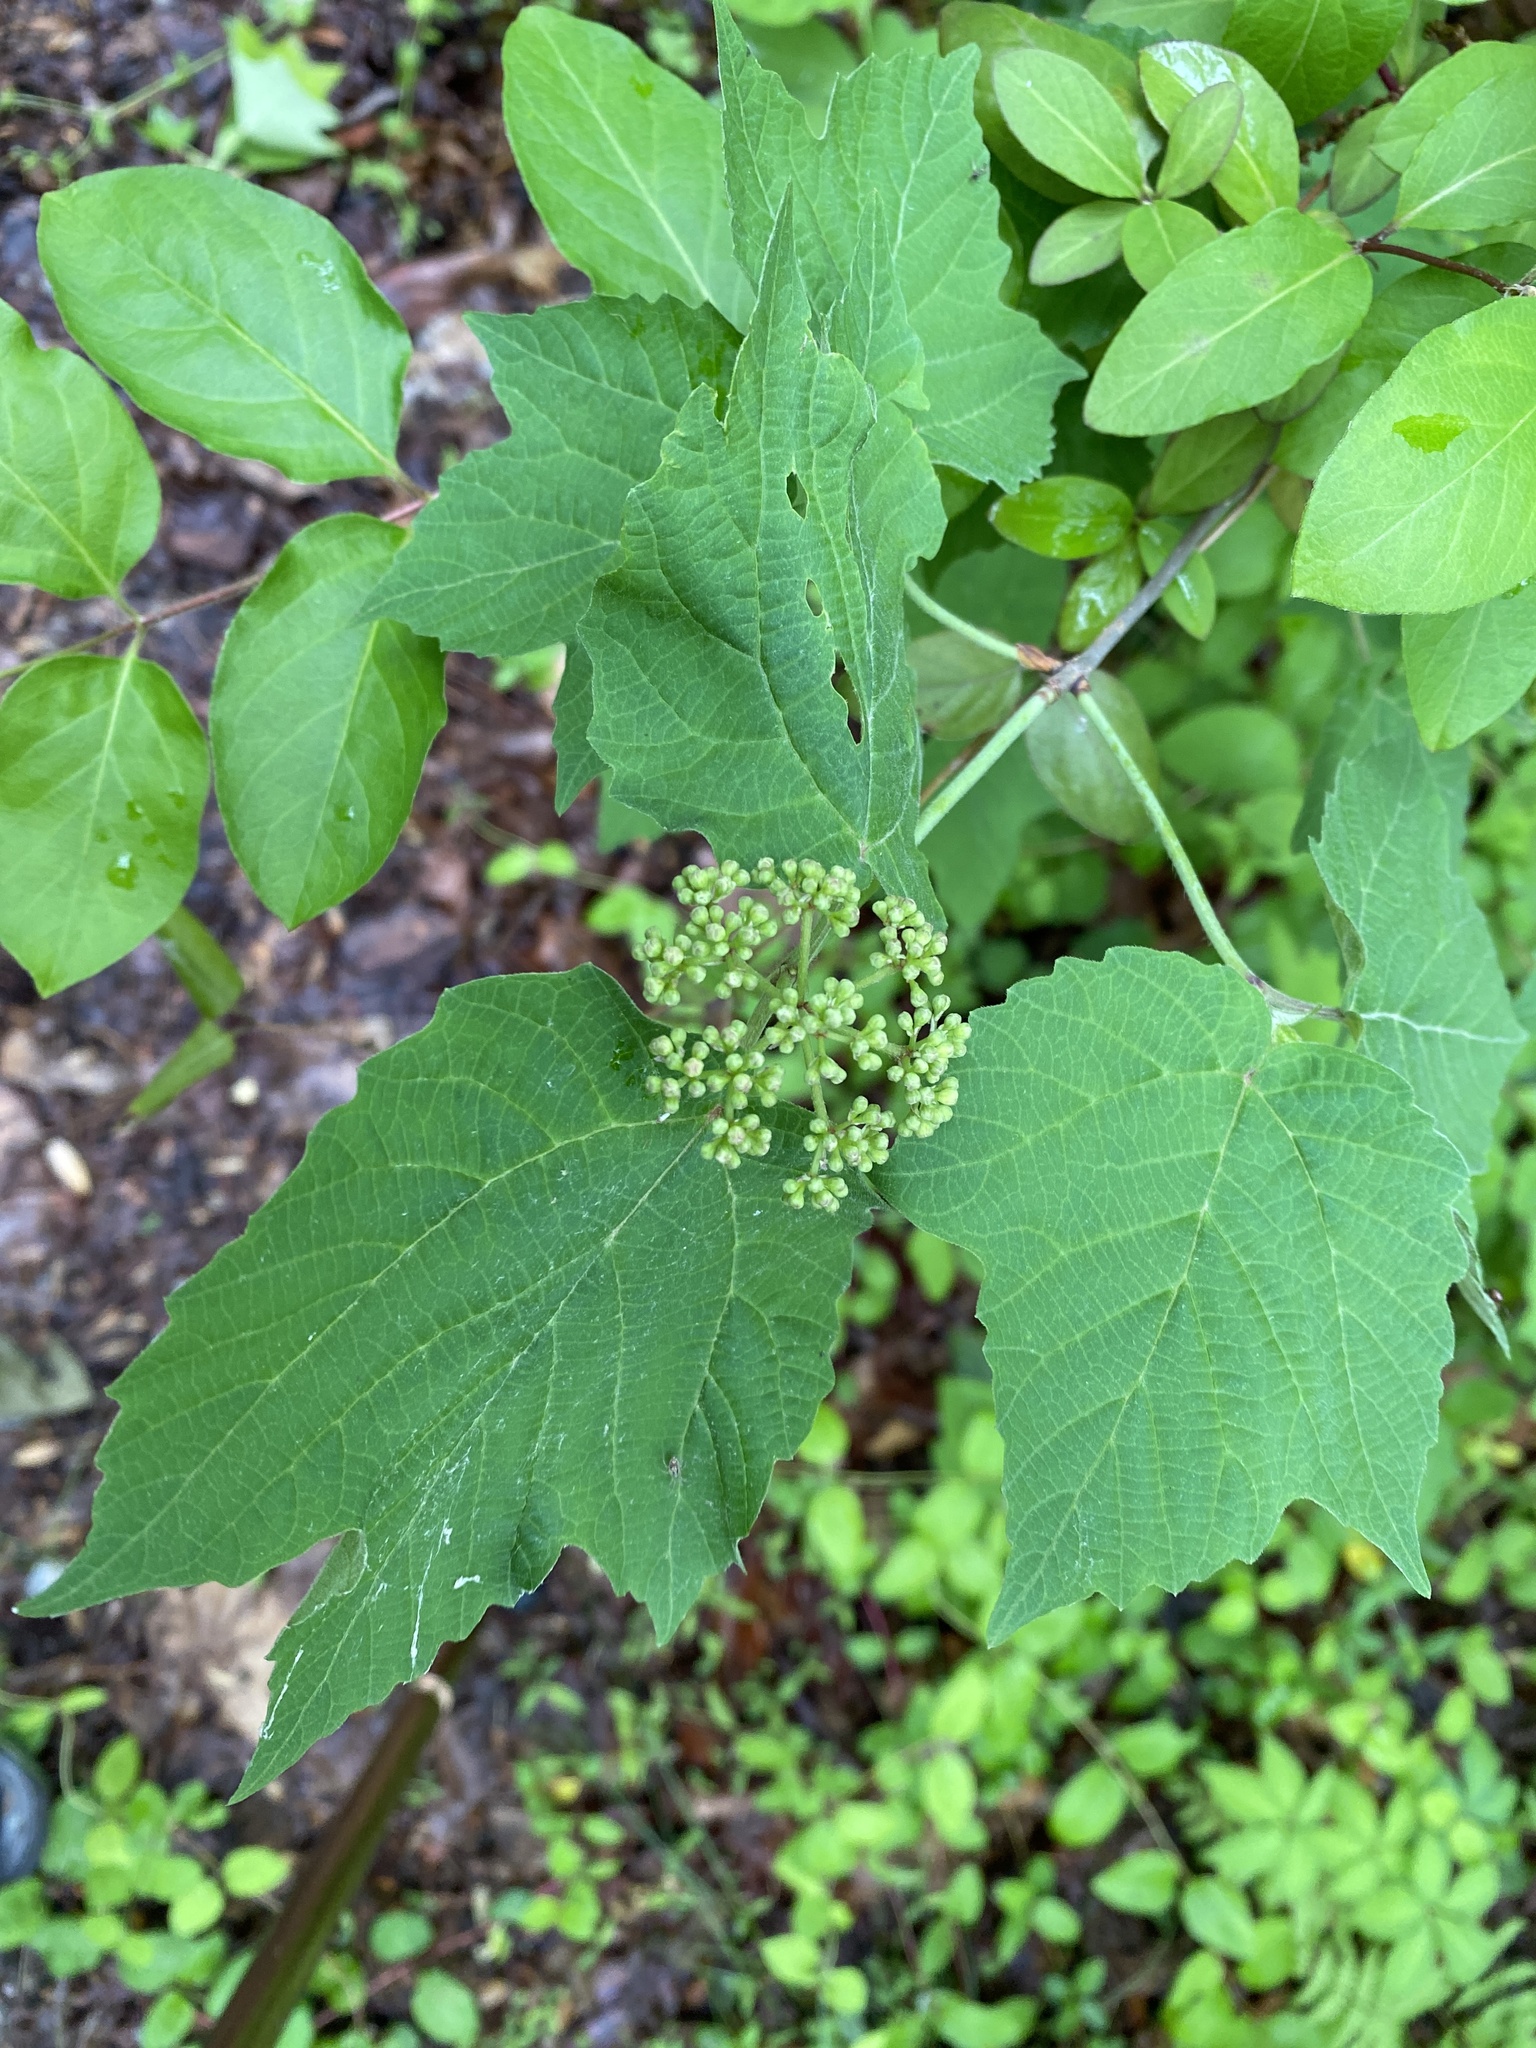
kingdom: Plantae
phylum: Tracheophyta
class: Magnoliopsida
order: Dipsacales
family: Viburnaceae
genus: Viburnum
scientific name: Viburnum acerifolium
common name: Dockmackie
